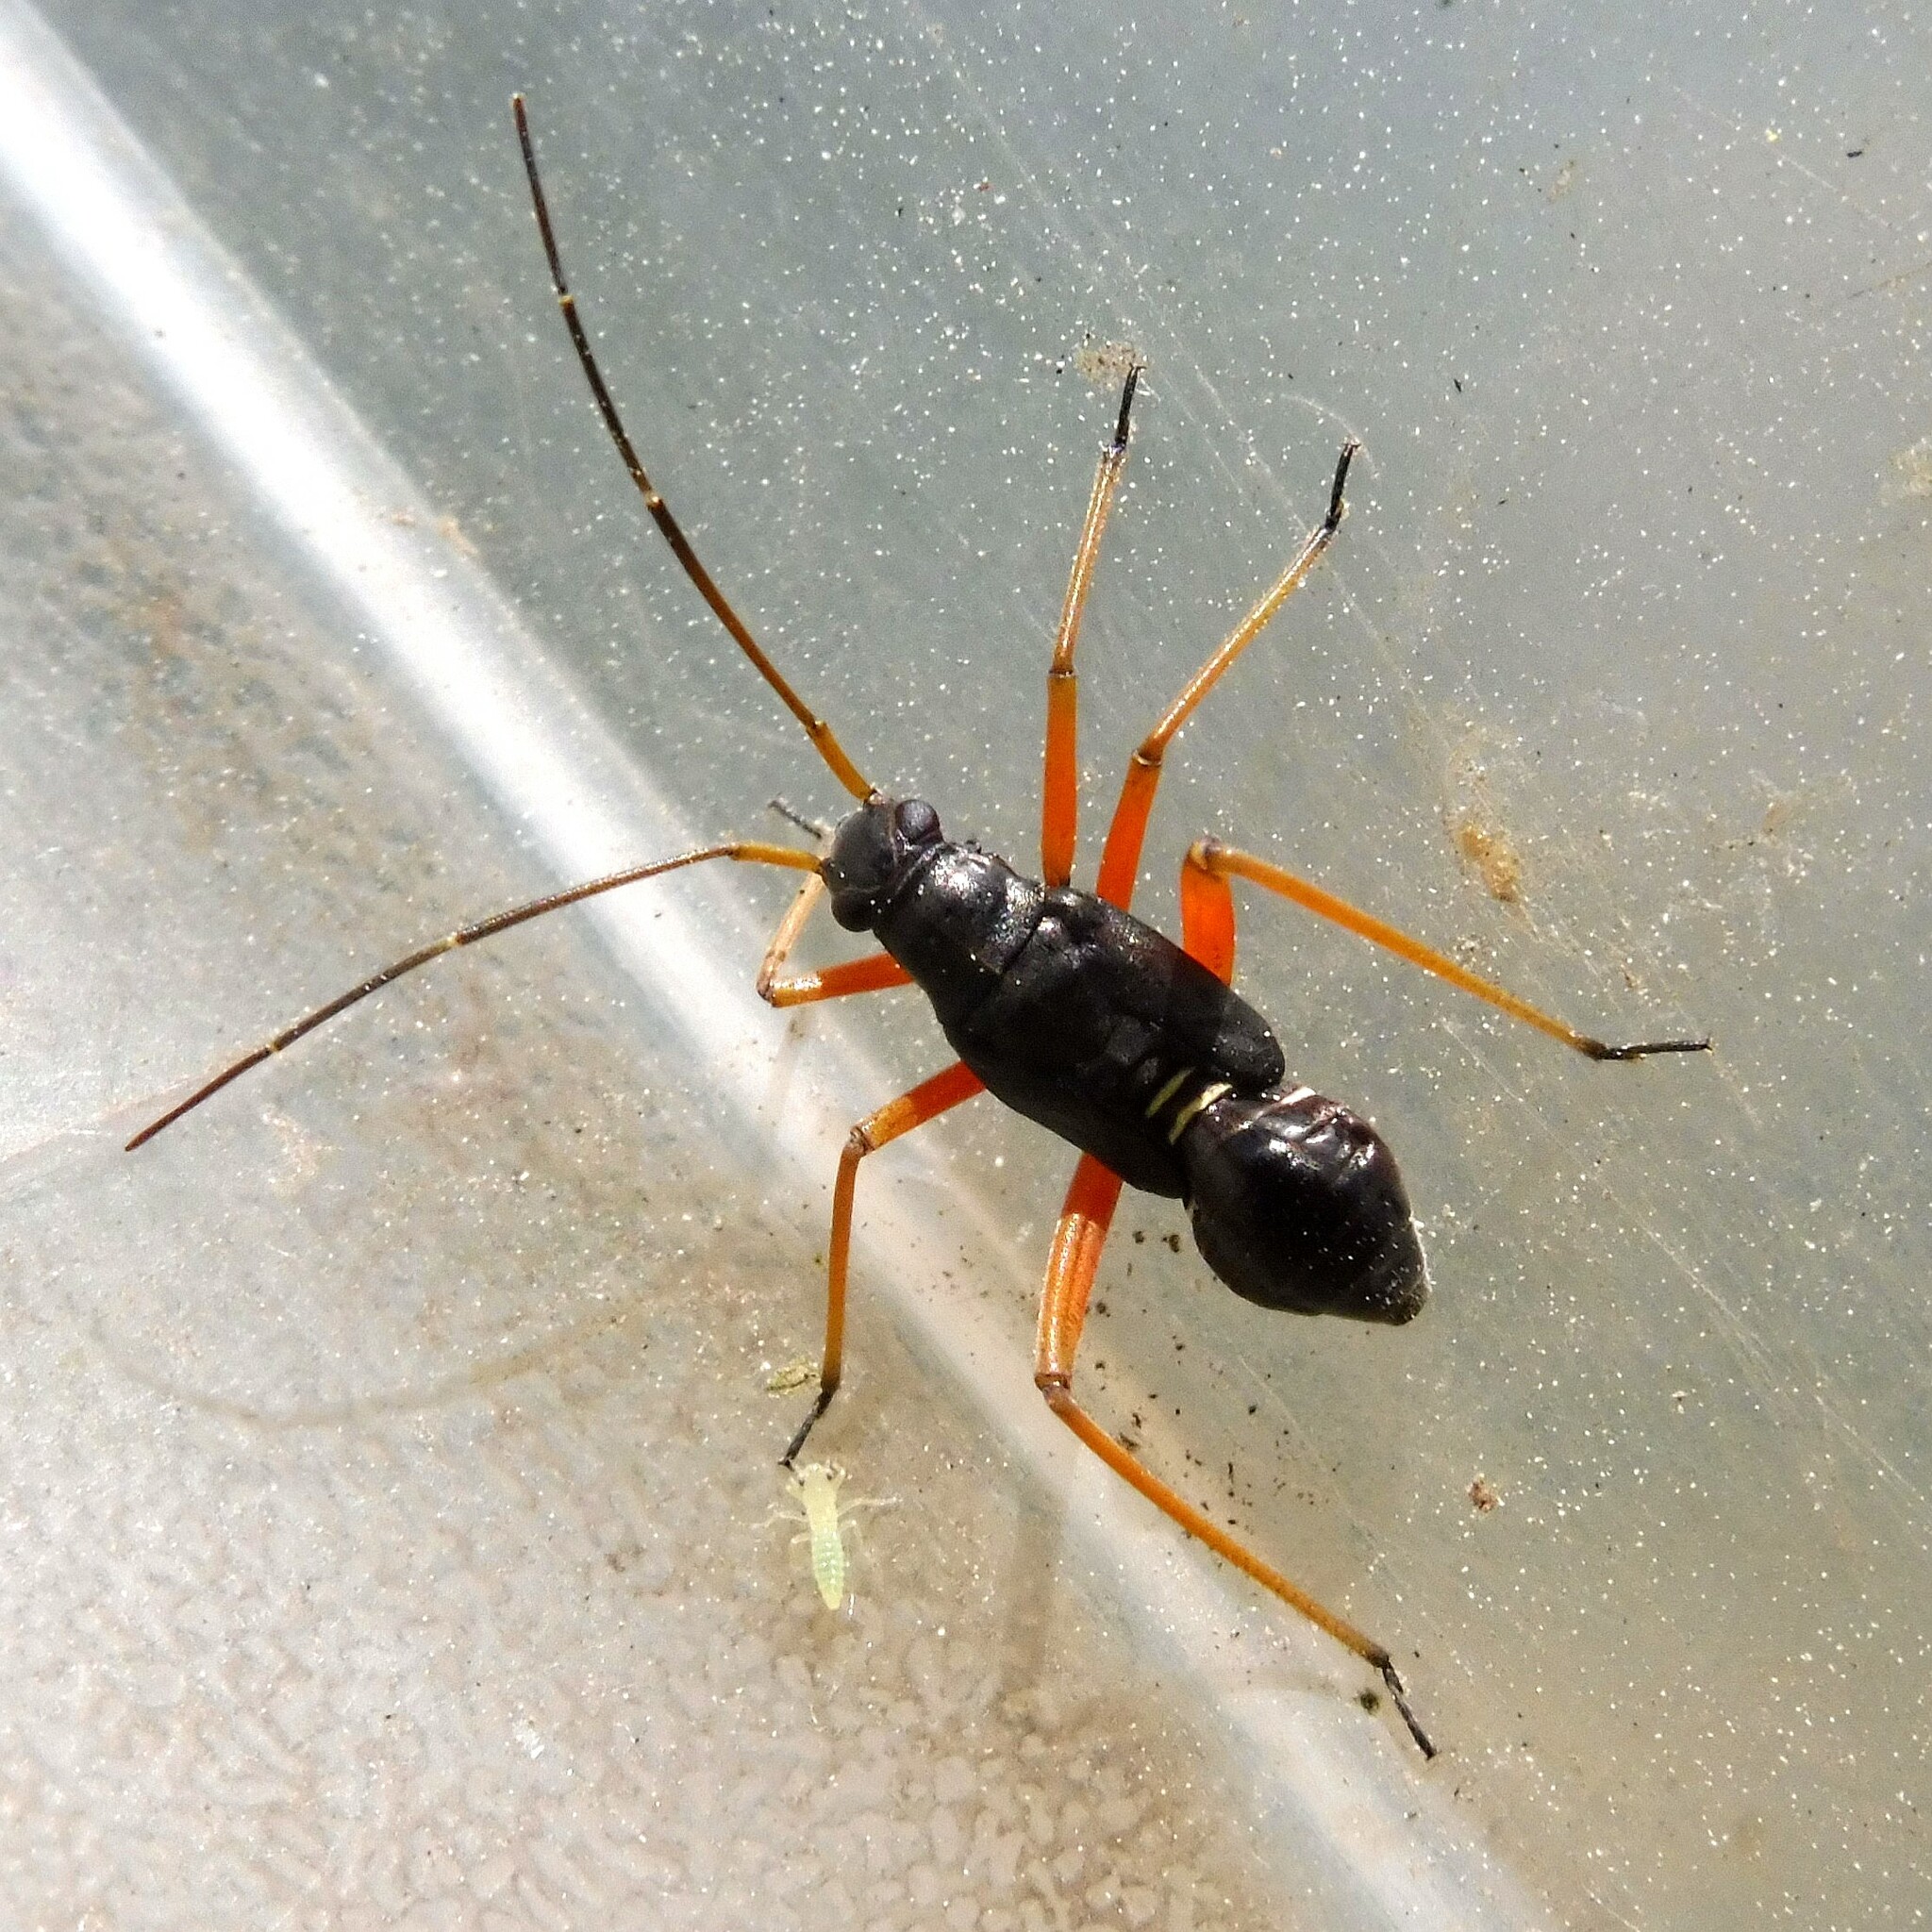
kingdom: Animalia
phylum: Arthropoda
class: Insecta
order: Hemiptera
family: Miridae
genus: Miris
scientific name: Miris striatus
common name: Fine streaked bugkin
